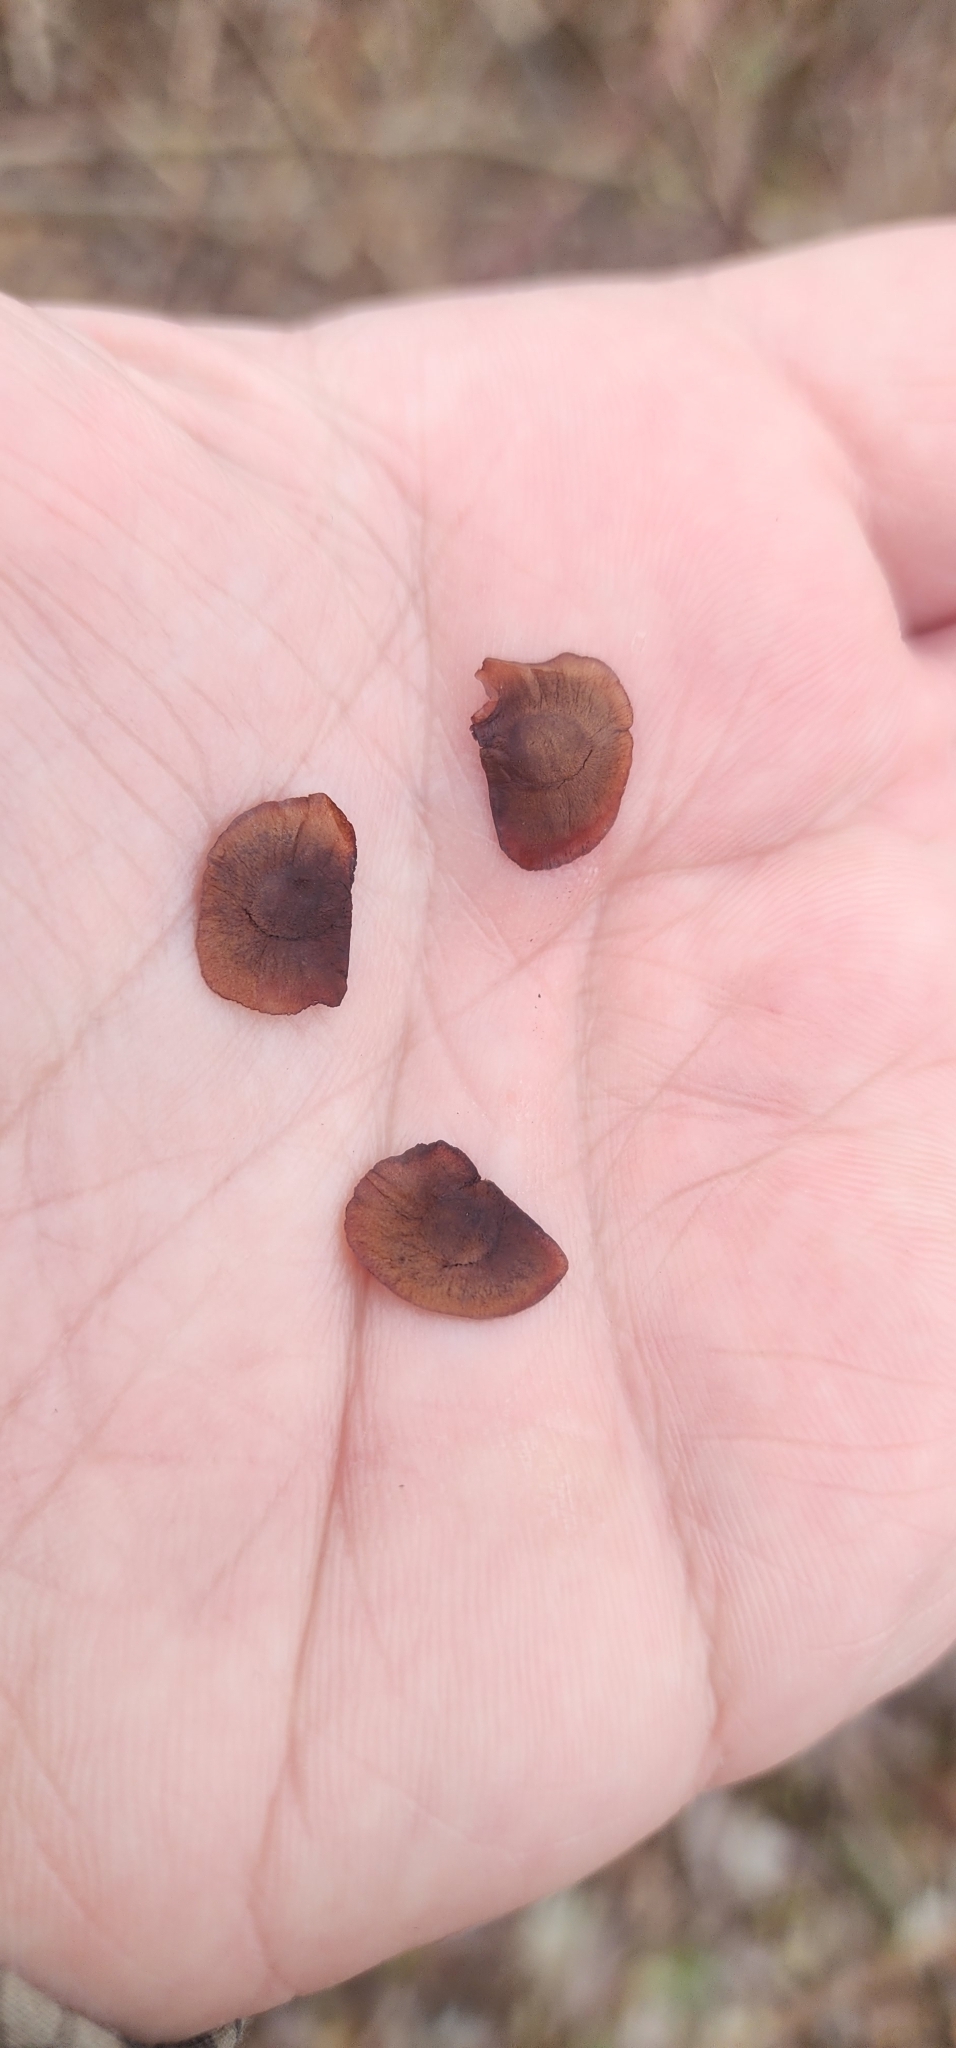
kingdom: Plantae
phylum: Tracheophyta
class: Liliopsida
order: Dioscoreales
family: Dioscoreaceae
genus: Dioscorea
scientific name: Dioscorea villosa
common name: Wild yam
